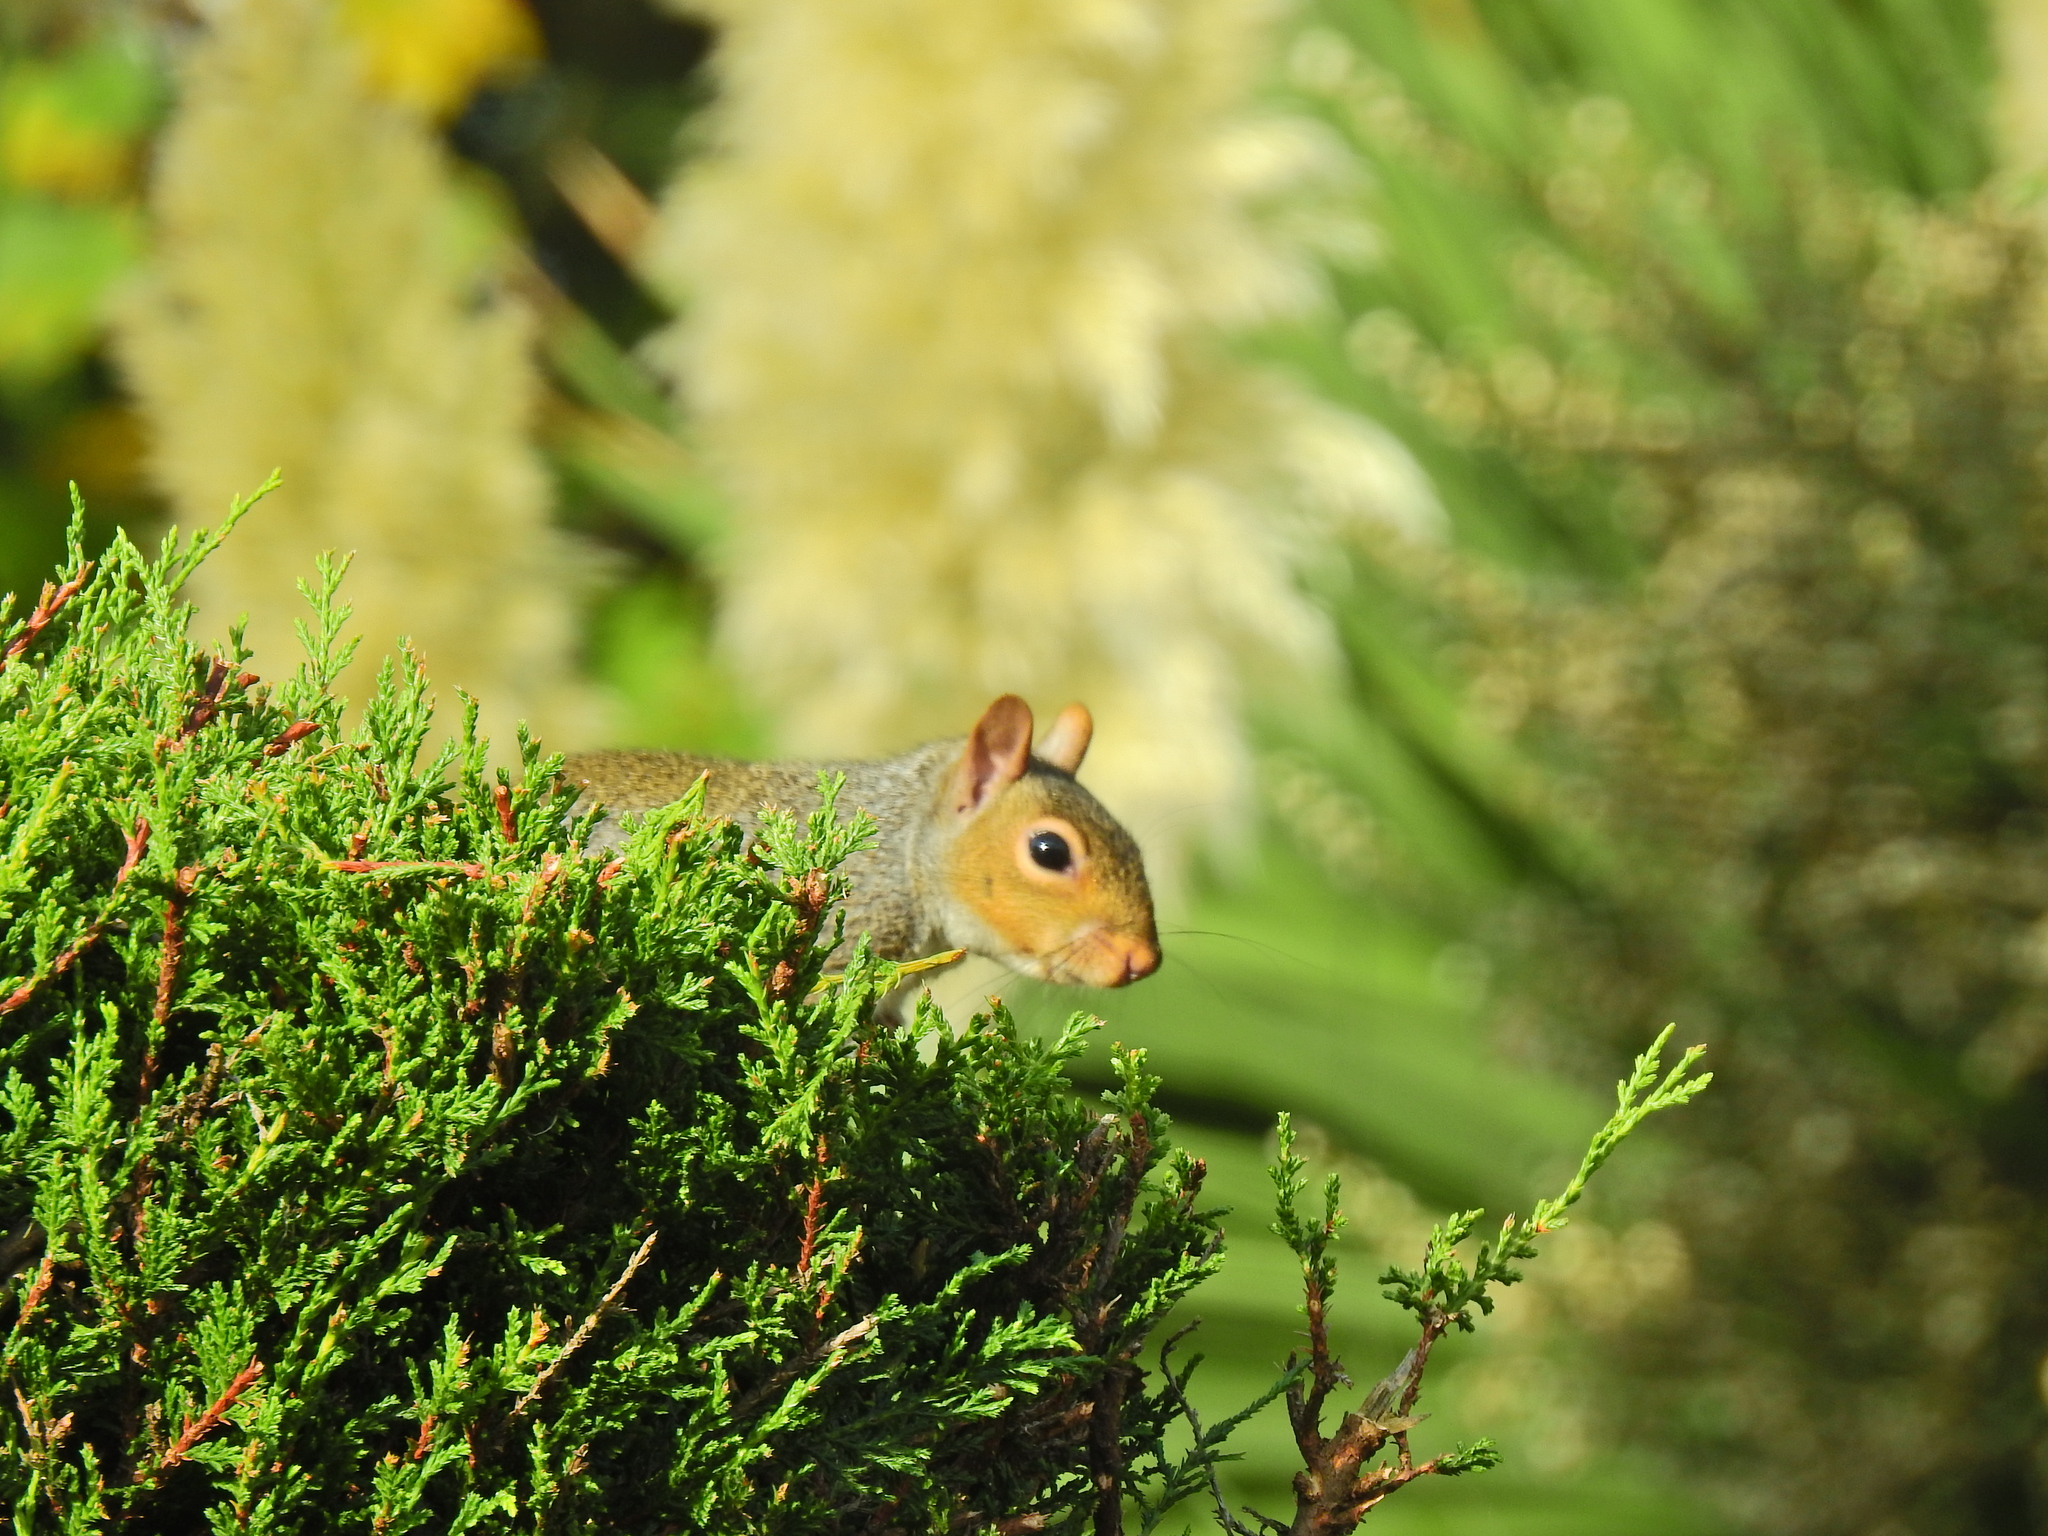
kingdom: Animalia
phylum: Chordata
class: Mammalia
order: Rodentia
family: Sciuridae
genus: Sciurus
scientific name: Sciurus carolinensis
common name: Eastern gray squirrel
